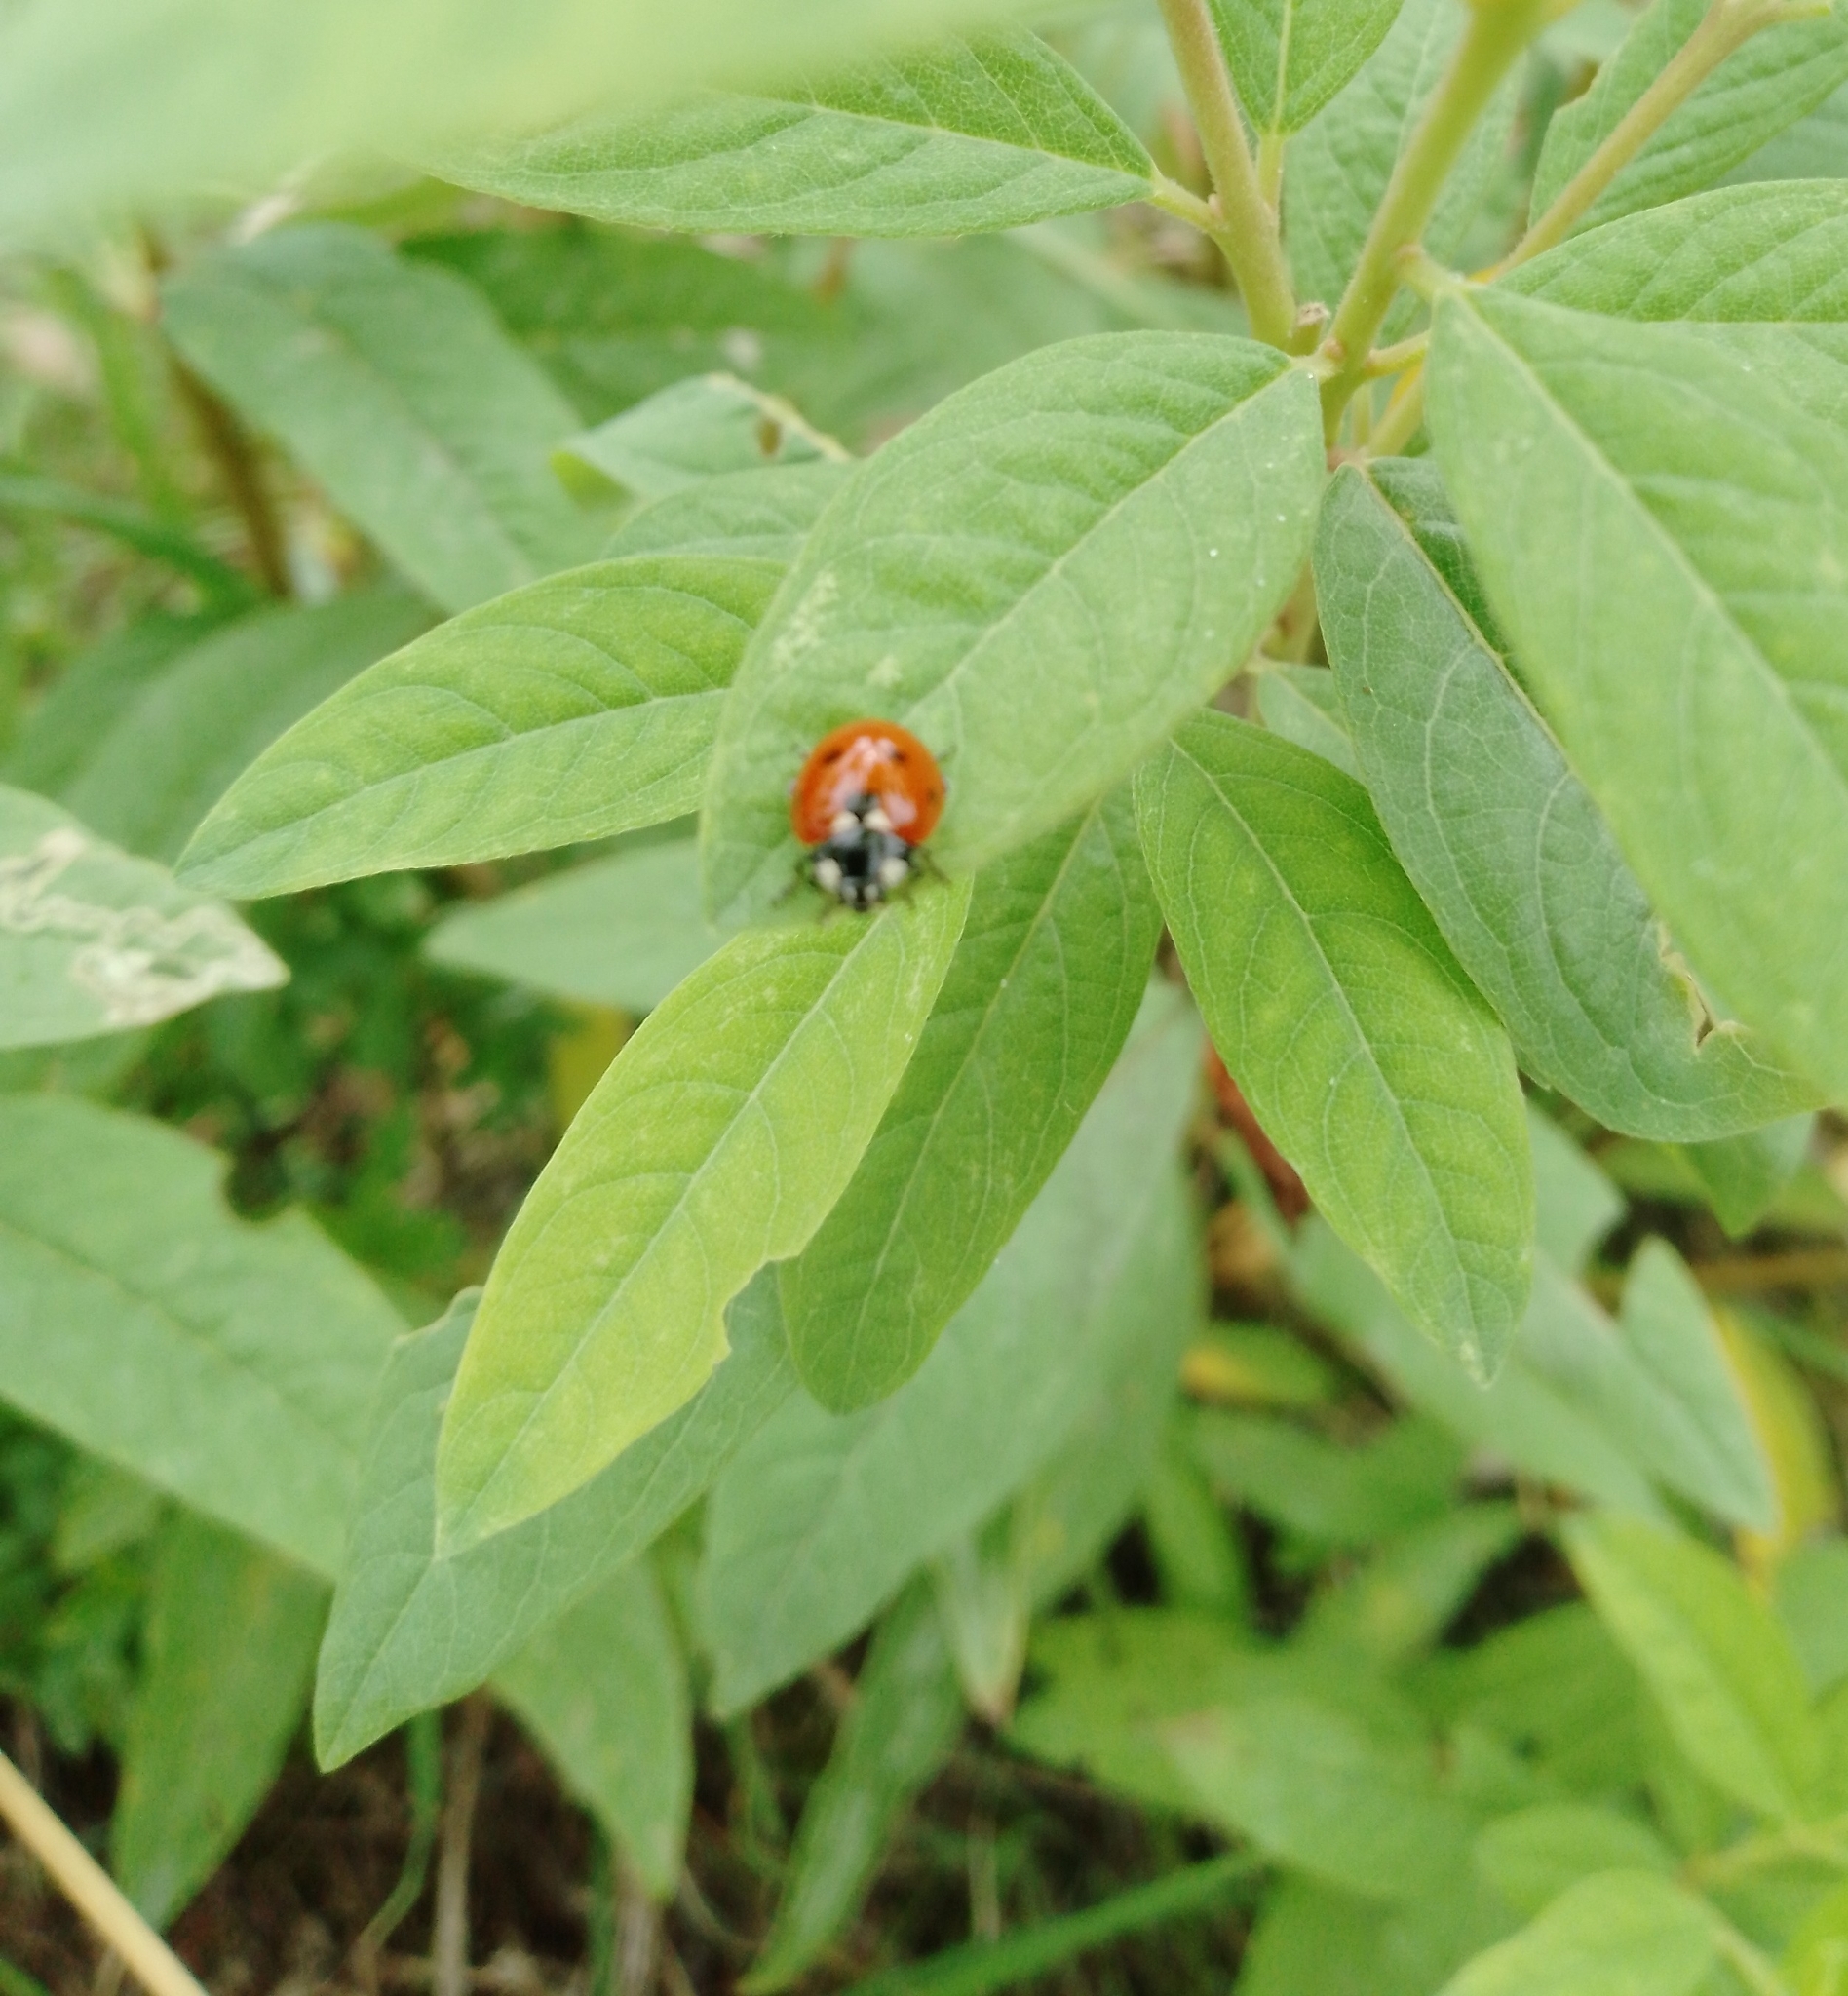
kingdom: Animalia
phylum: Arthropoda
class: Insecta
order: Coleoptera
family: Coccinellidae
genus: Coccinella
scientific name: Coccinella septempunctata
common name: Sevenspotted lady beetle
